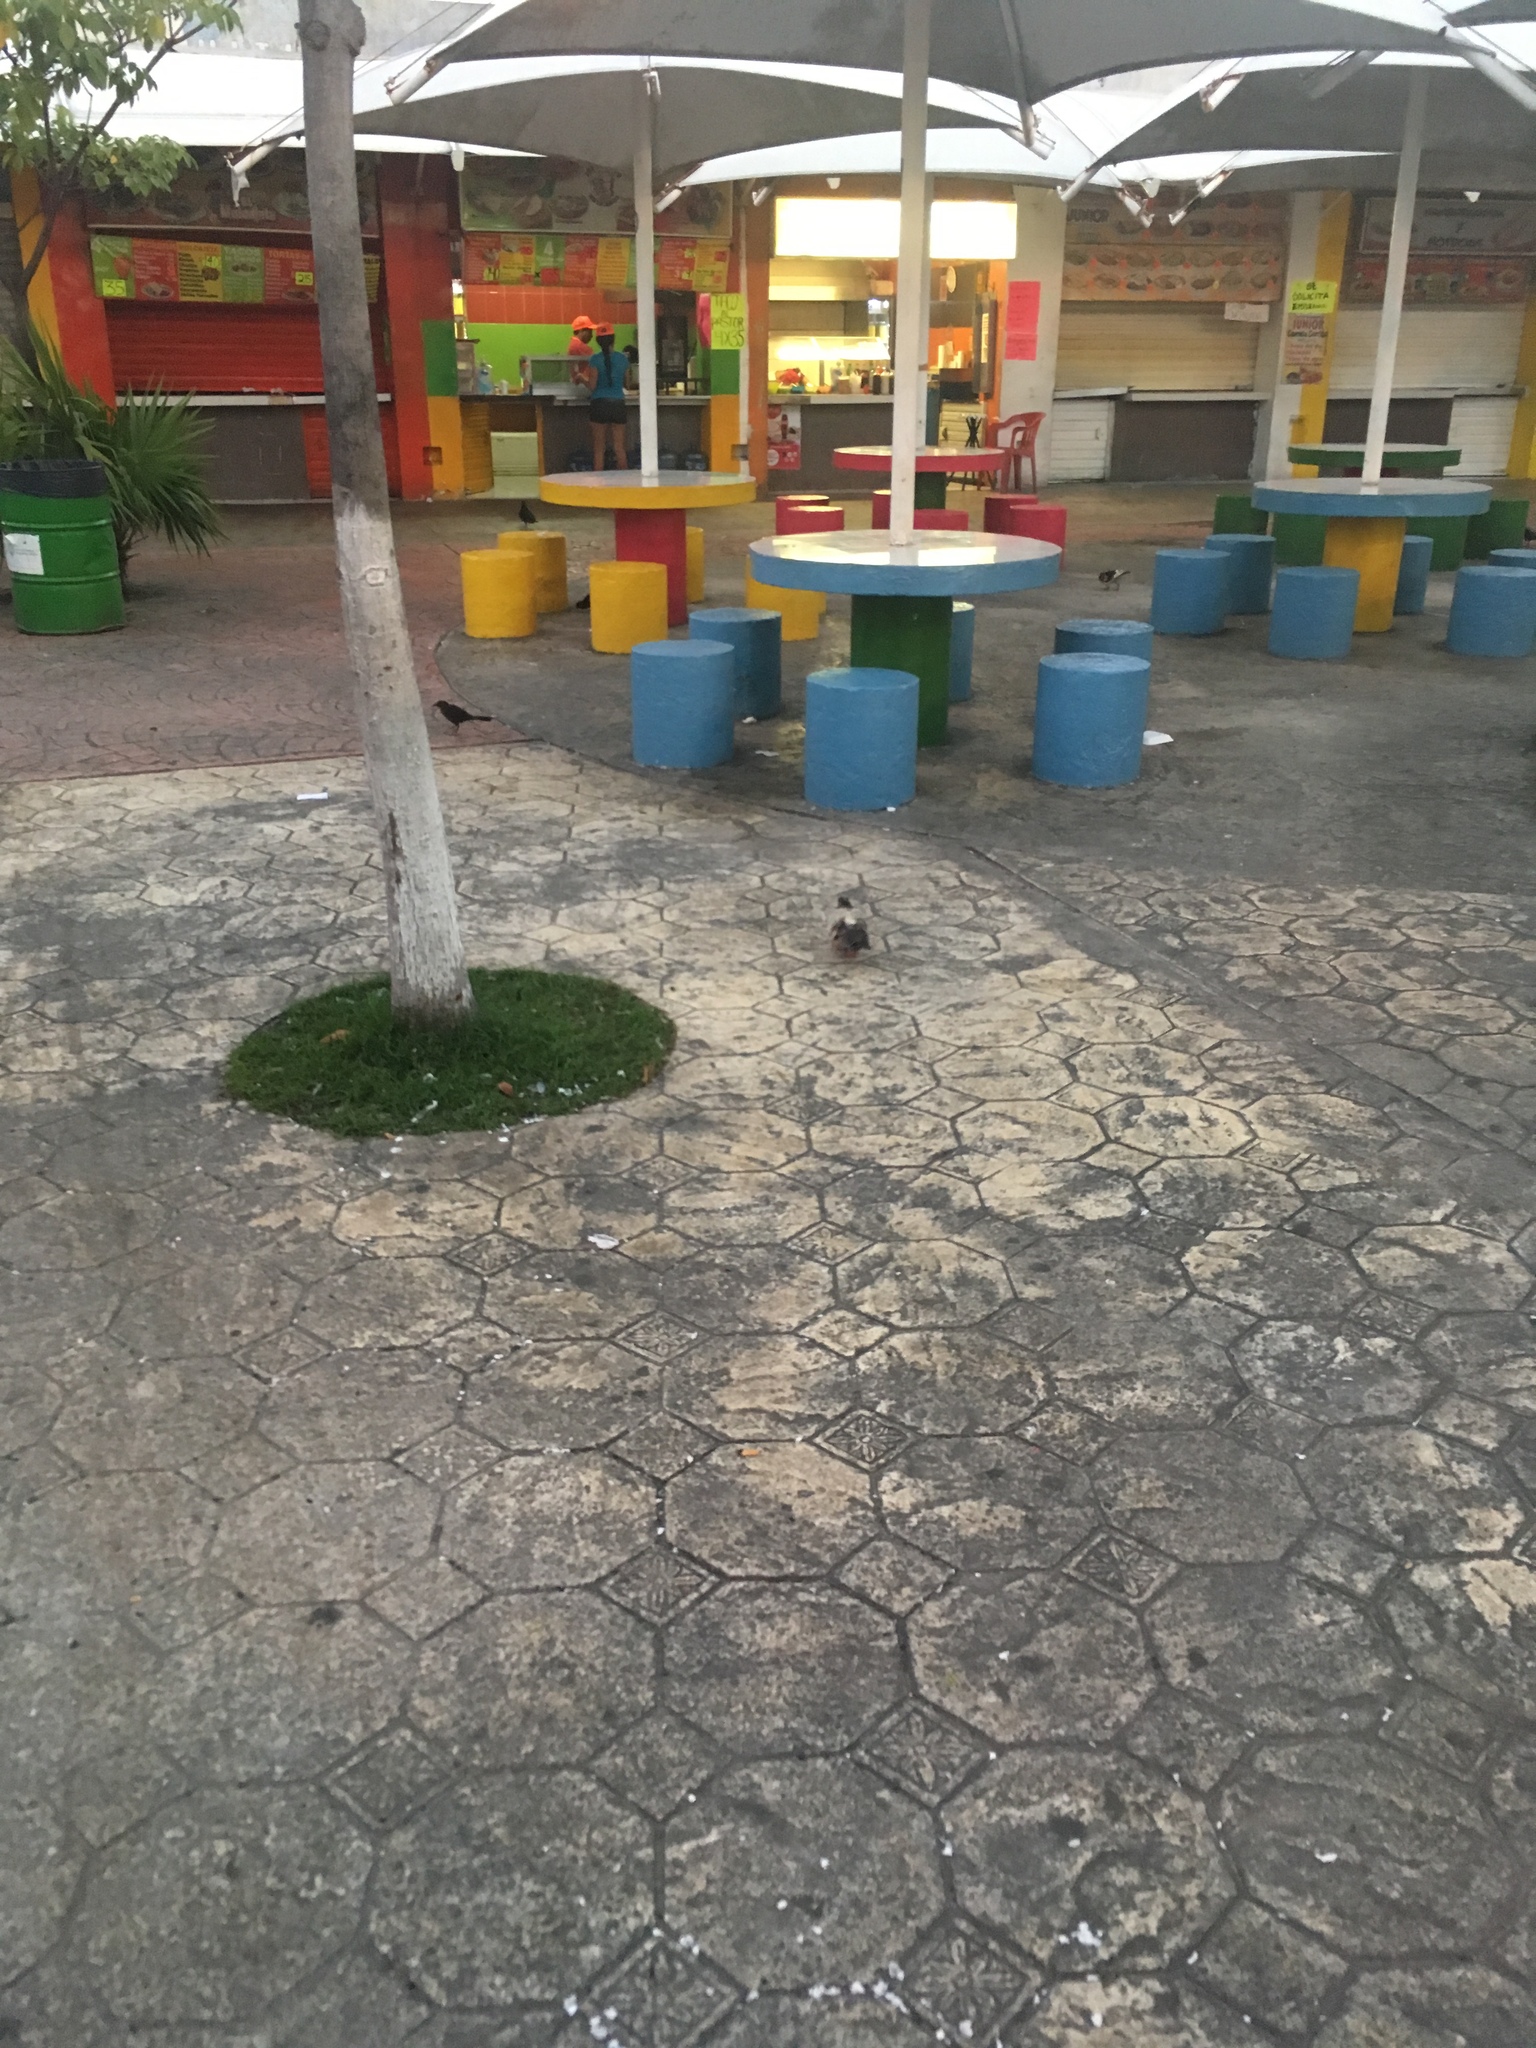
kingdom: Animalia
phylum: Chordata
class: Aves
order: Columbiformes
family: Columbidae
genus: Columba
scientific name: Columba livia
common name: Rock pigeon
